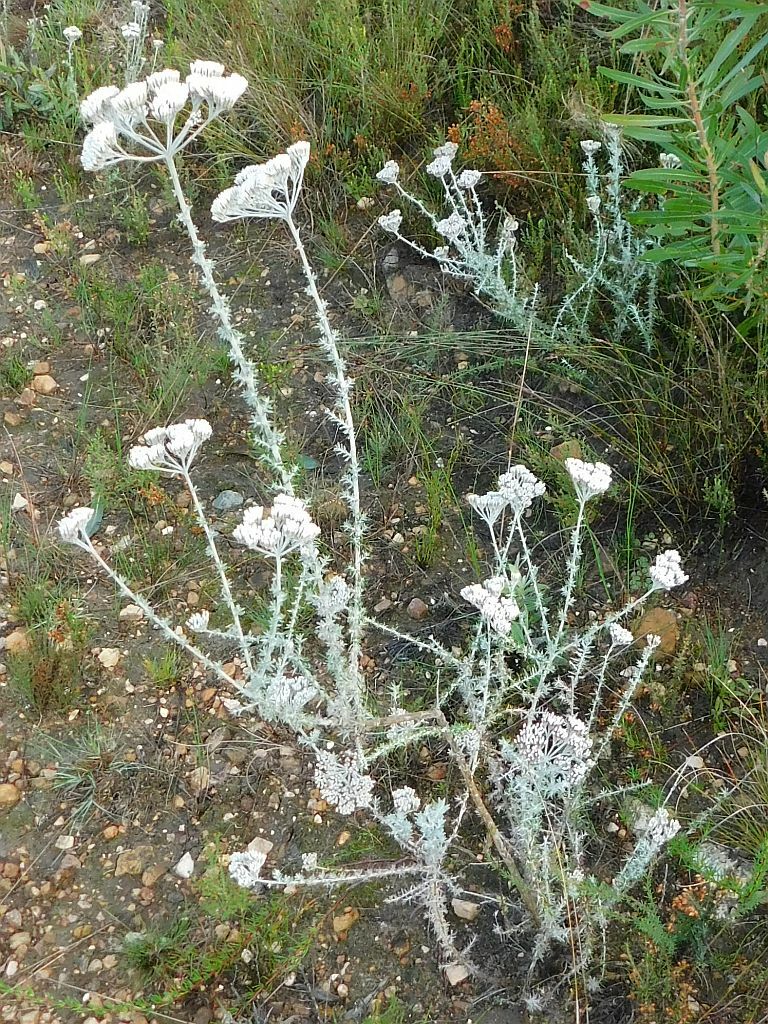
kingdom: Plantae
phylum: Tracheophyta
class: Magnoliopsida
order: Asterales
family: Asteraceae
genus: Metalasia
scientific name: Metalasia densa
